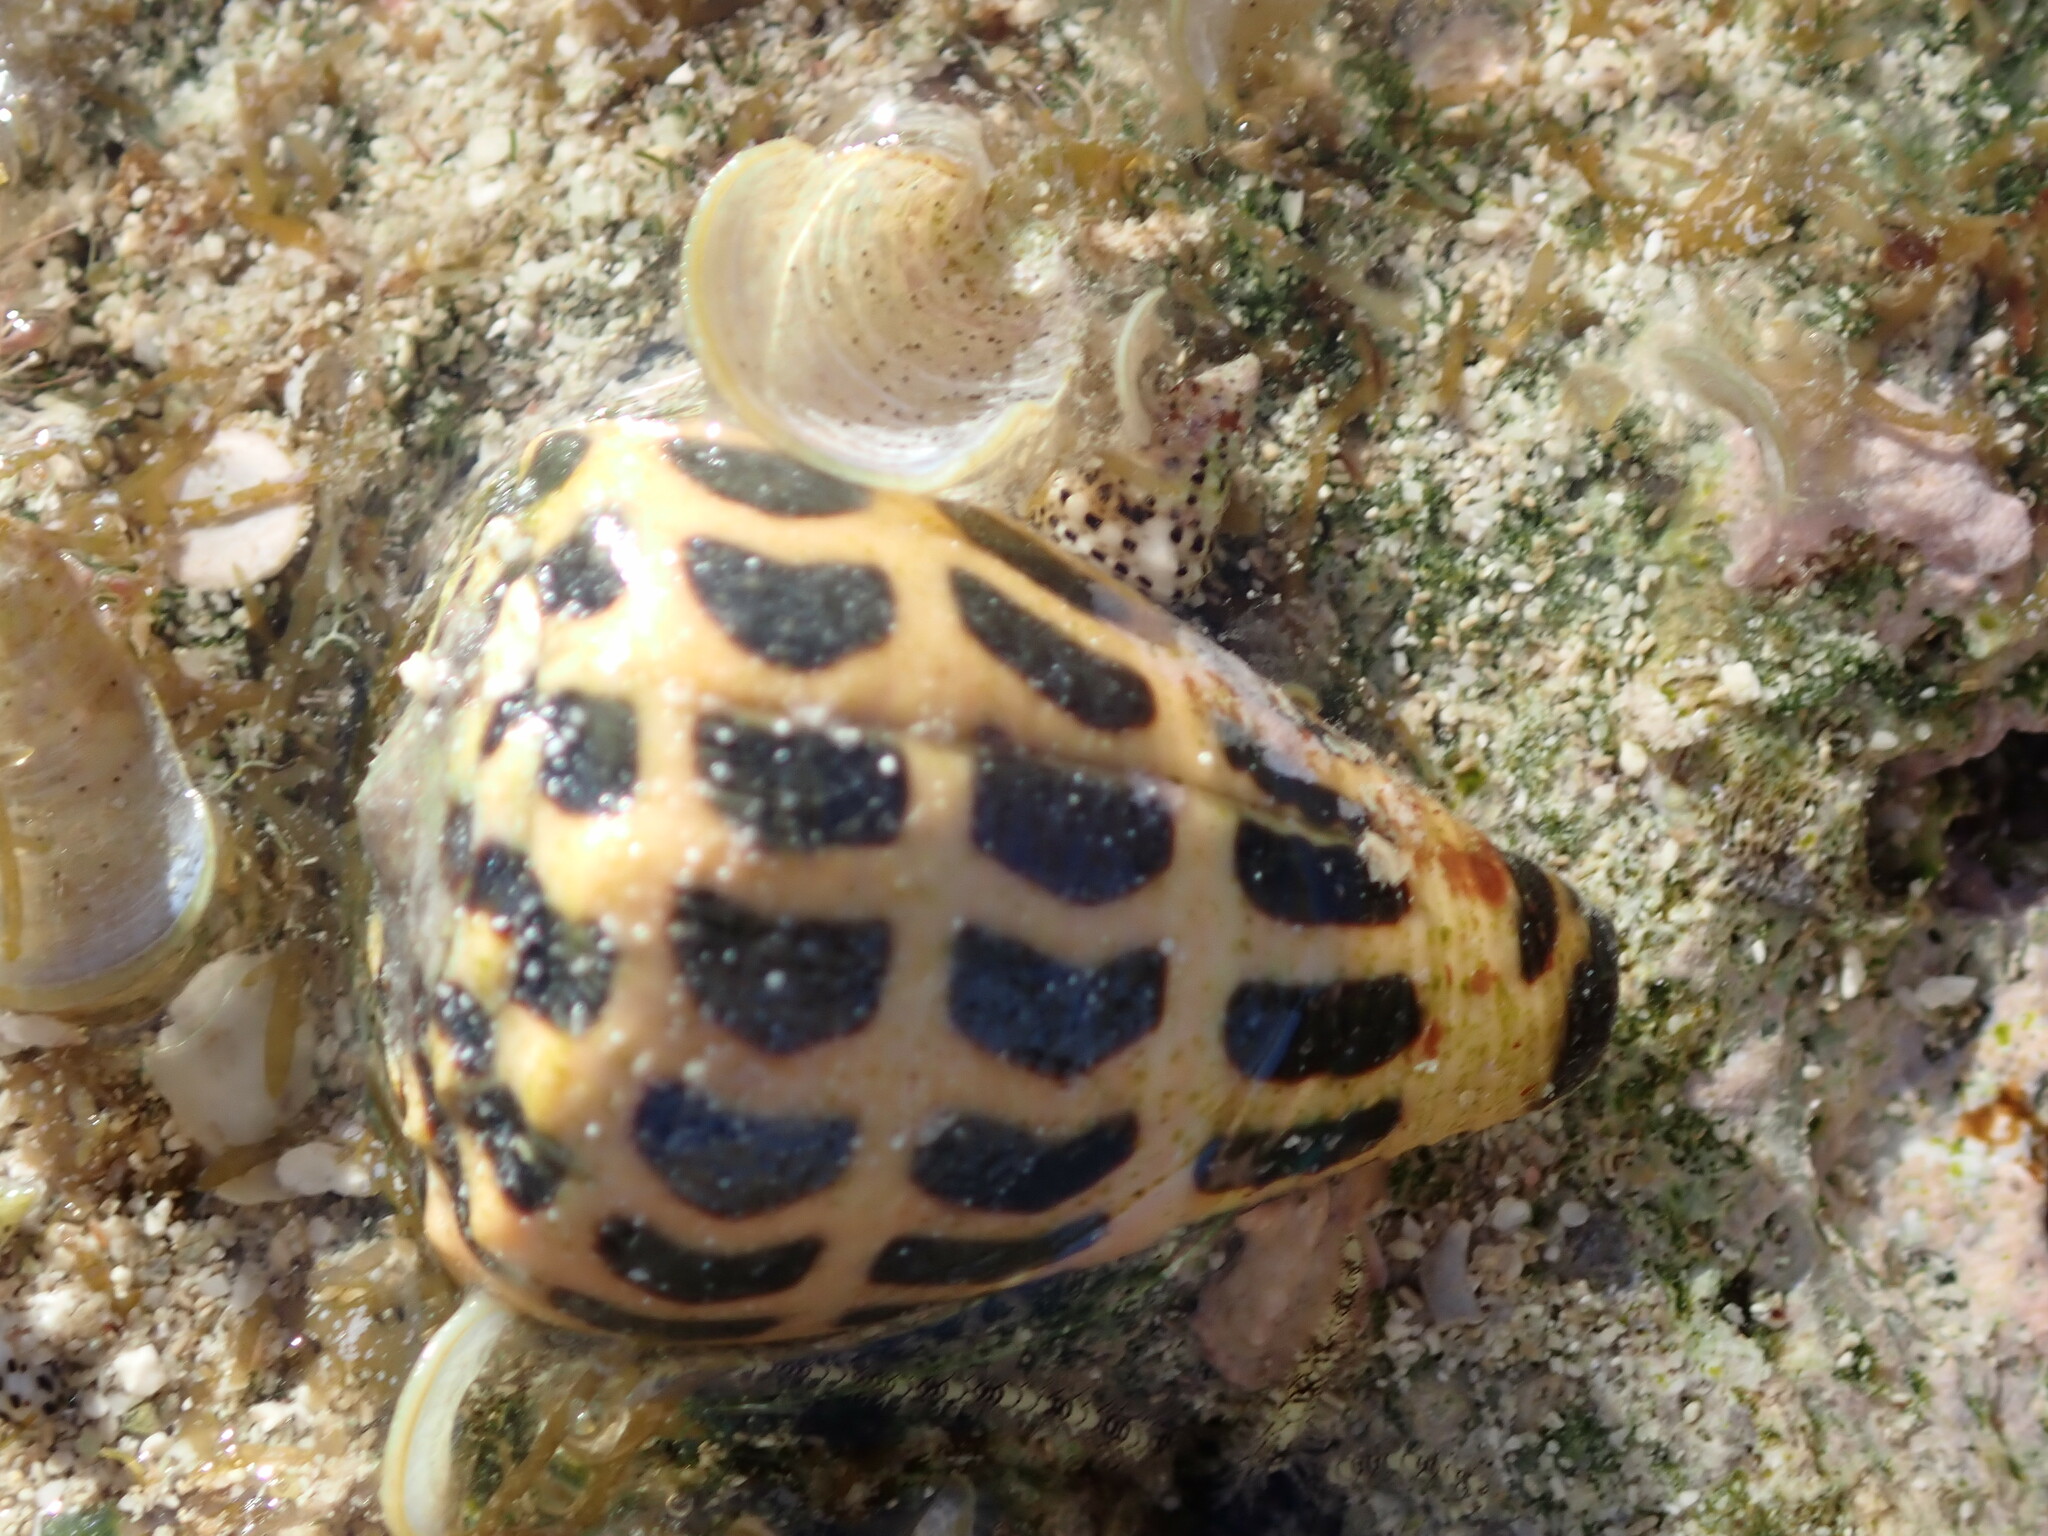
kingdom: Animalia
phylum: Mollusca
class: Gastropoda
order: Neogastropoda
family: Conidae
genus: Conus
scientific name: Conus ebraeus
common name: Hebrew cone
